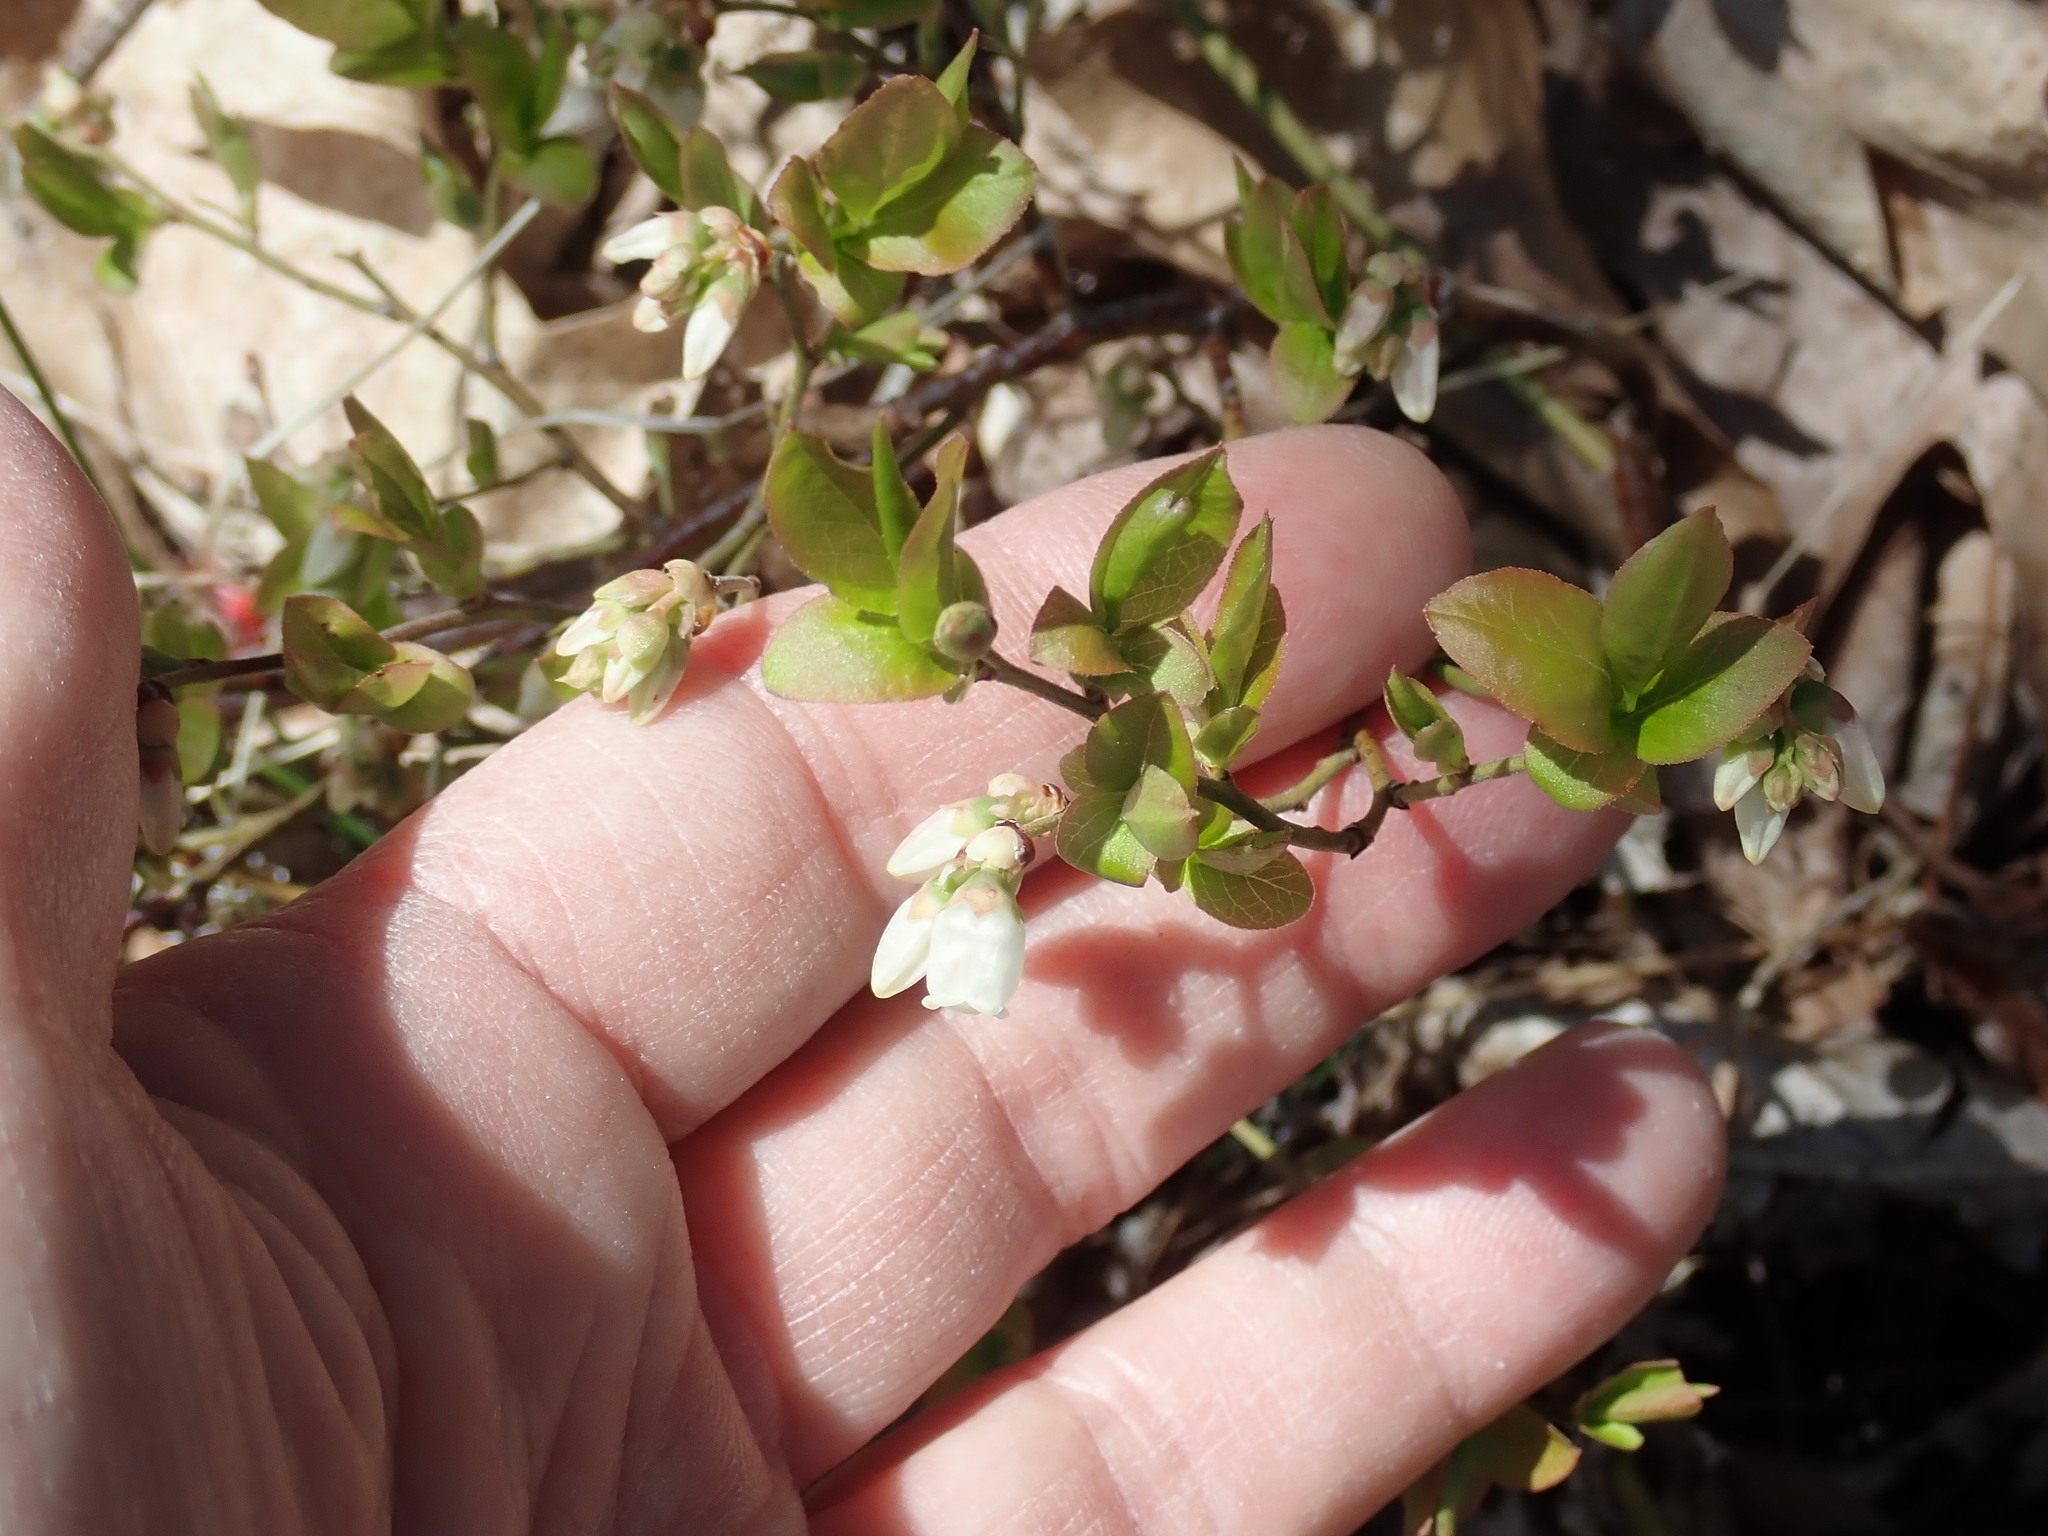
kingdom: Plantae
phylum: Tracheophyta
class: Magnoliopsida
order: Ericales
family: Ericaceae
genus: Vaccinium
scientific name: Vaccinium angustifolium
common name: Early lowbush blueberry
